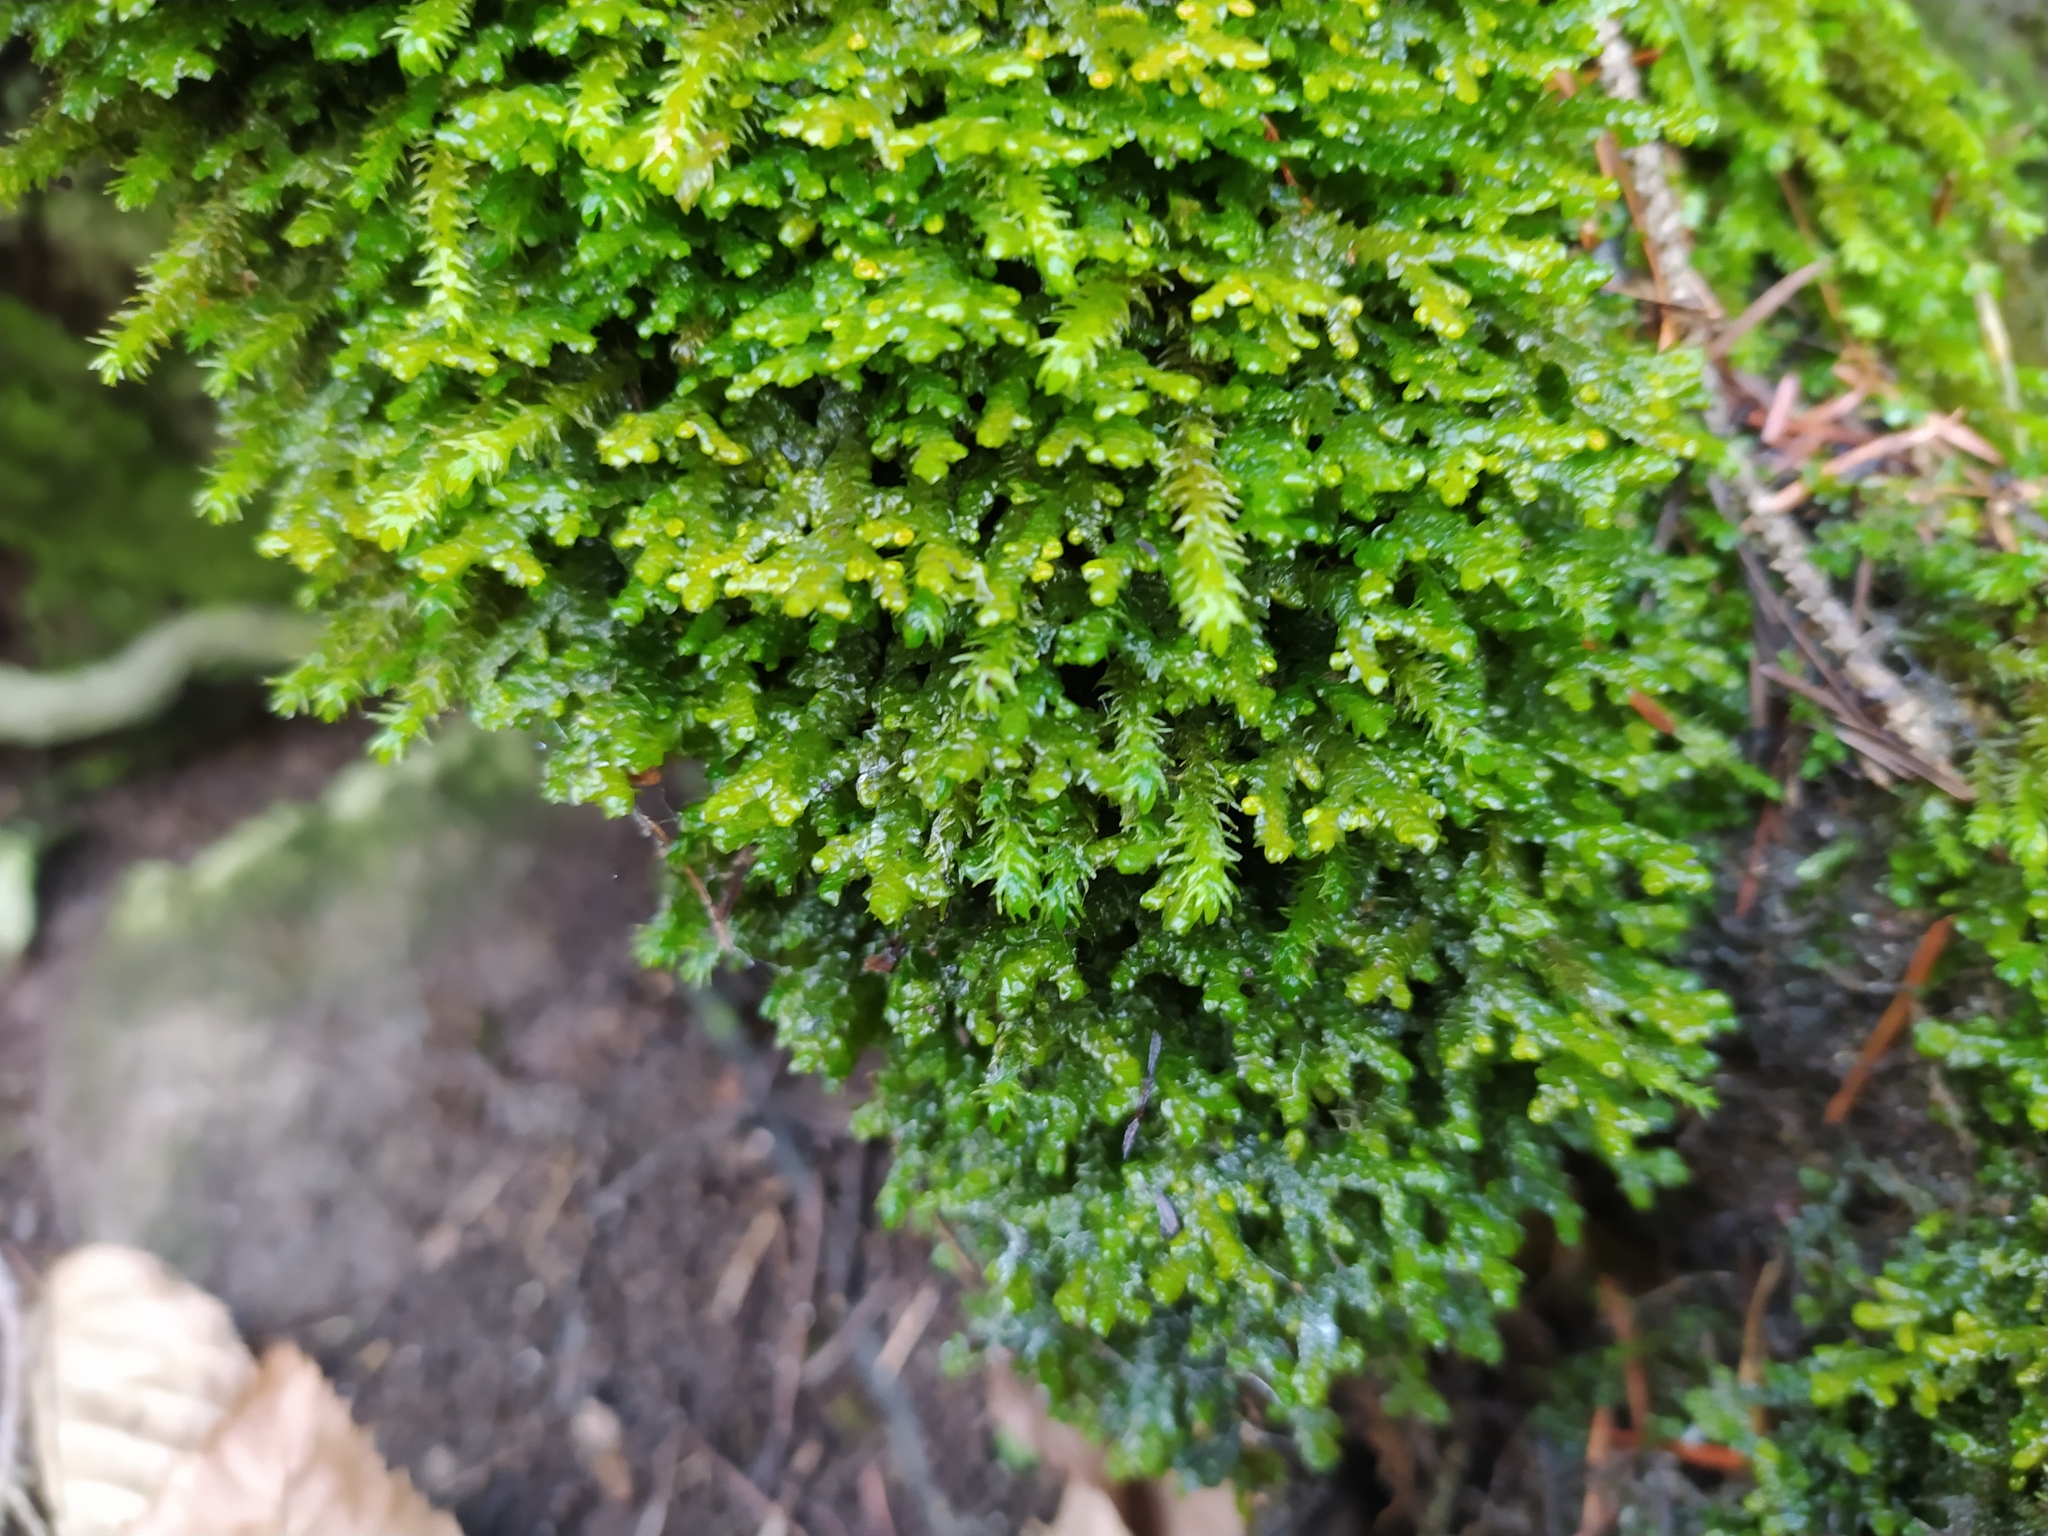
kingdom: Plantae
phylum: Marchantiophyta
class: Jungermanniopsida
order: Porellales
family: Porellaceae
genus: Porella
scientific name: Porella platyphylla
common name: Wall scalewort
